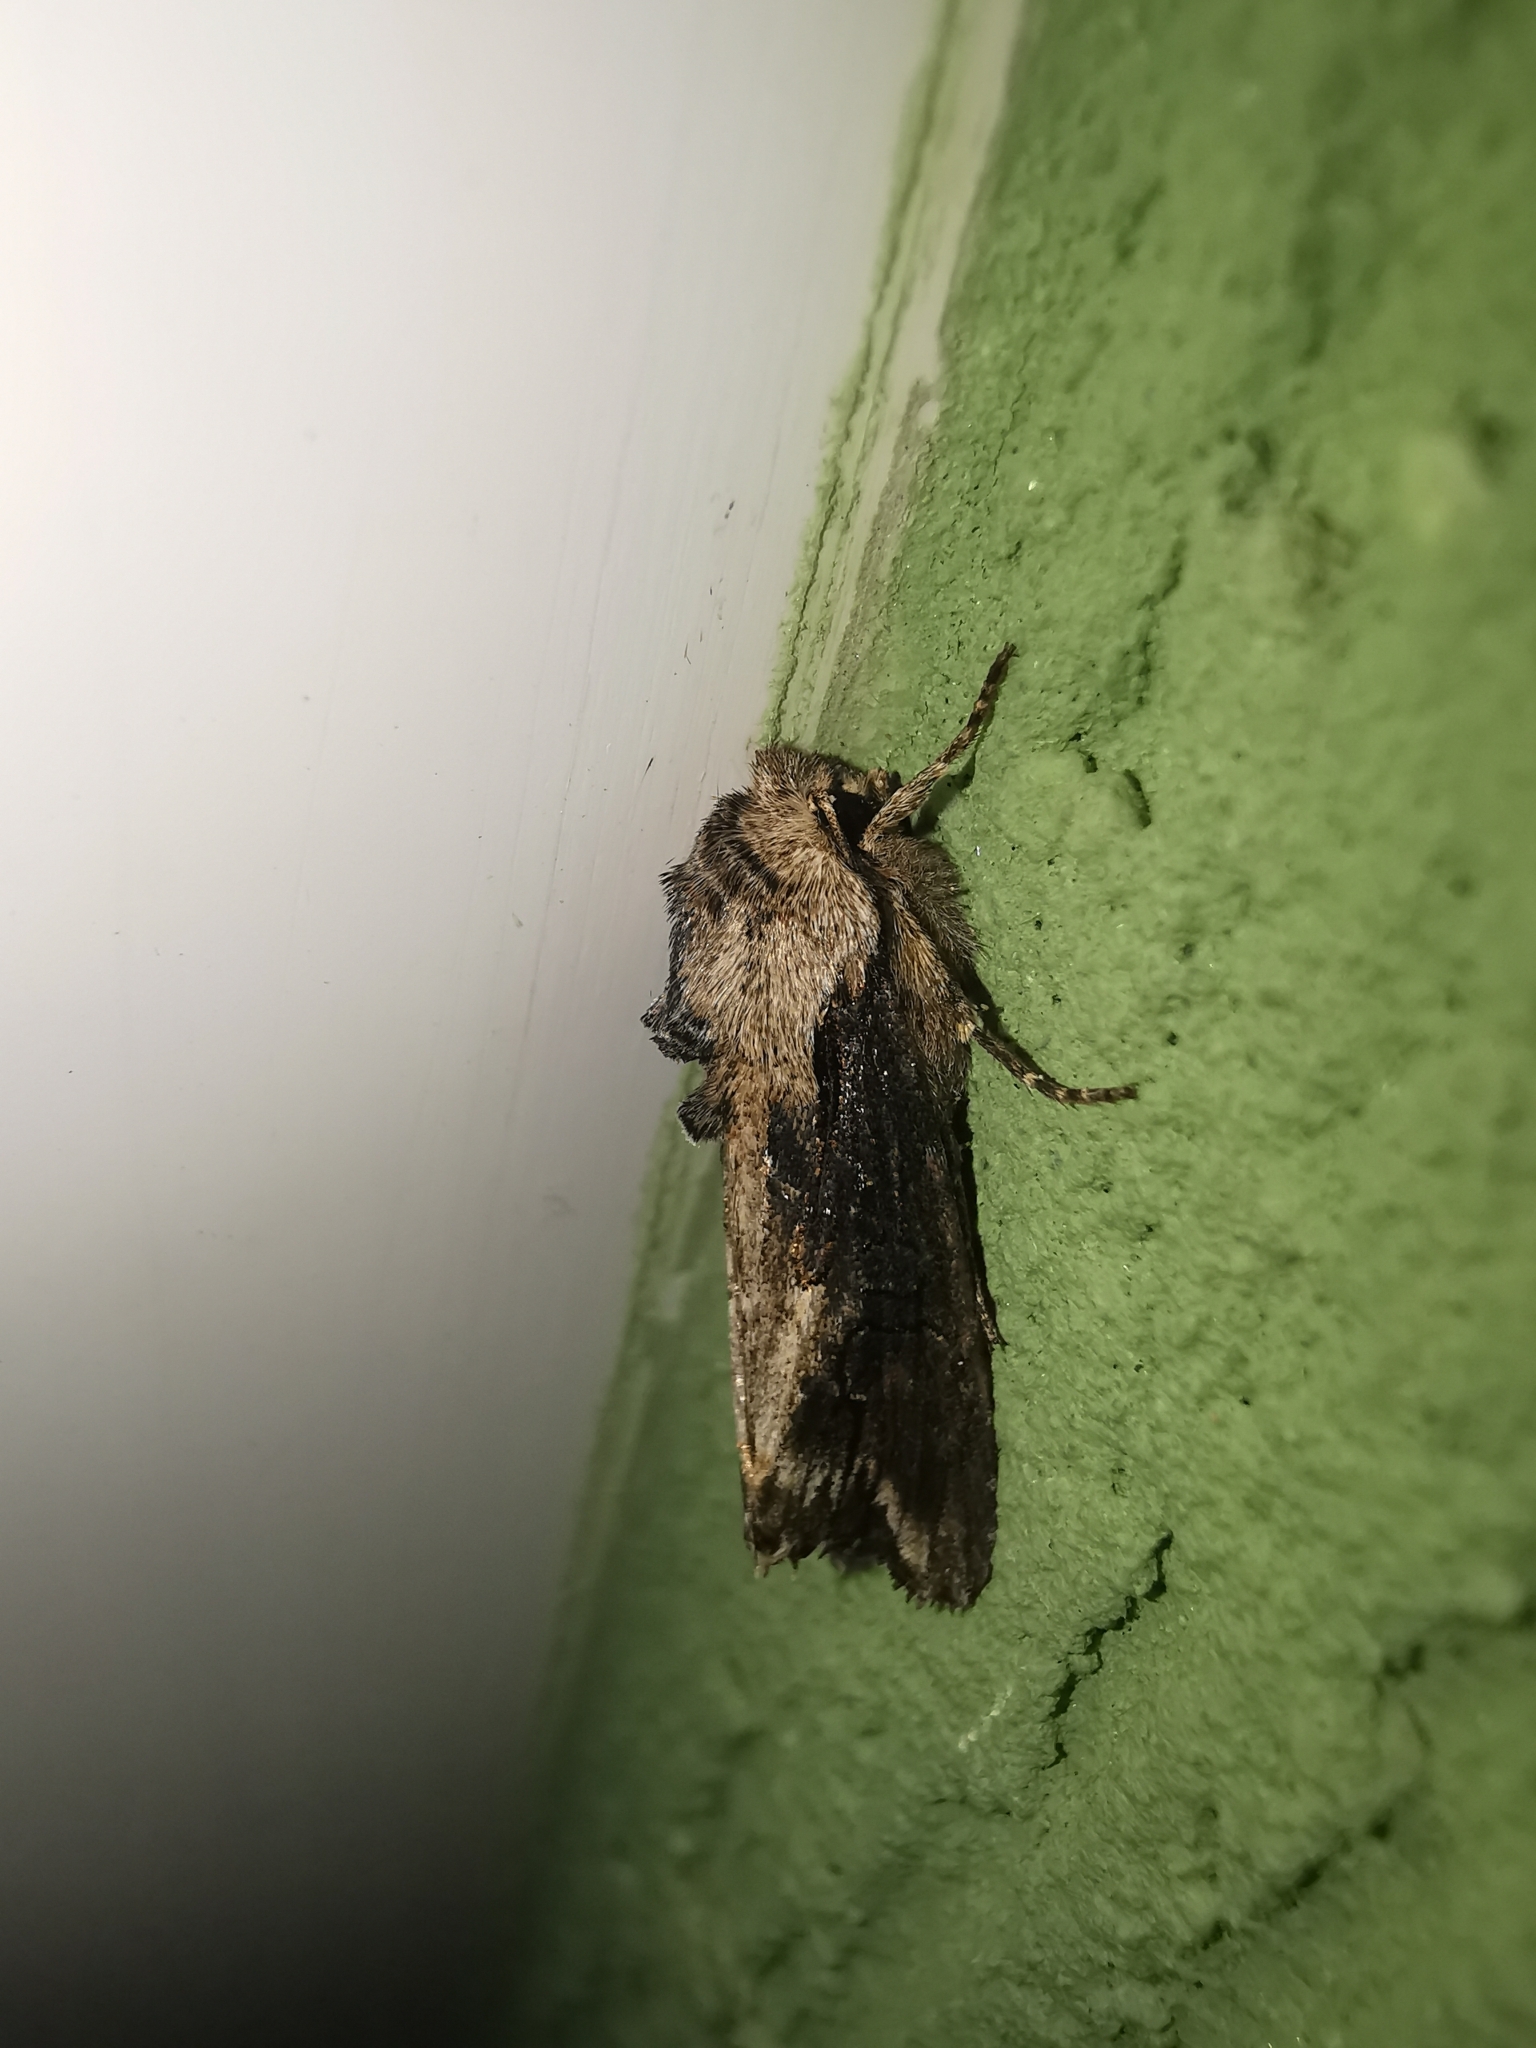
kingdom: Animalia
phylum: Arthropoda
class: Insecta
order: Lepidoptera
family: Noctuidae
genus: Egira
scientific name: Egira conspicillaris
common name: Silver cloud
